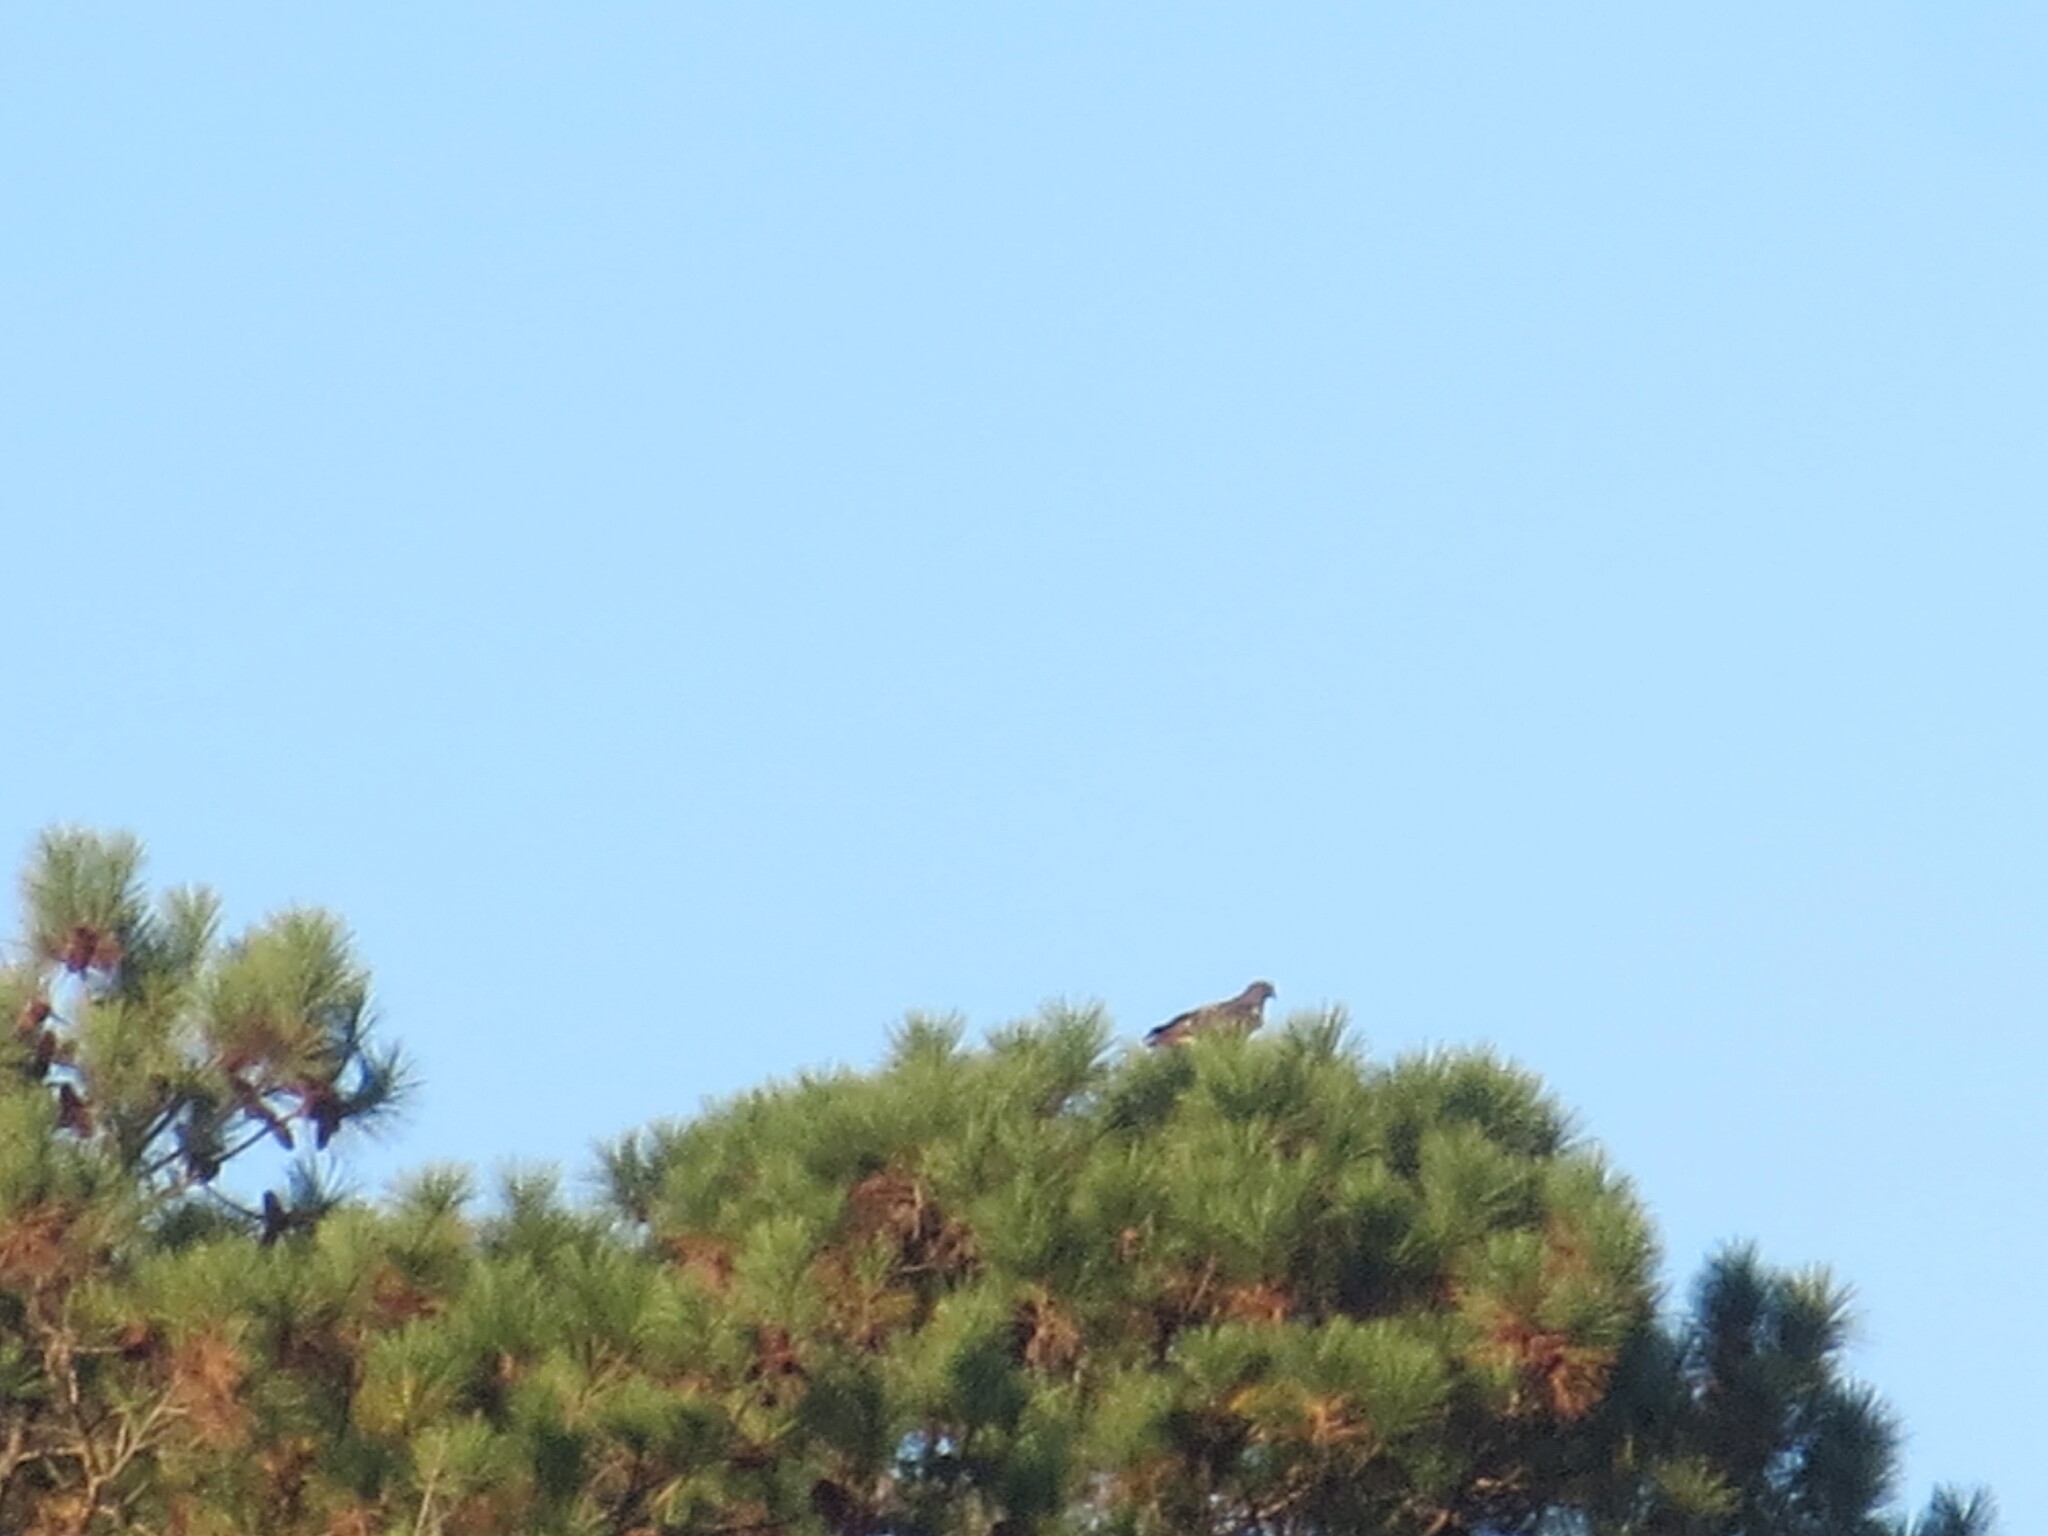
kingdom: Animalia
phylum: Chordata
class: Aves
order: Accipitriformes
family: Accipitridae
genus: Buteo
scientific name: Buteo jamaicensis
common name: Red-tailed hawk
